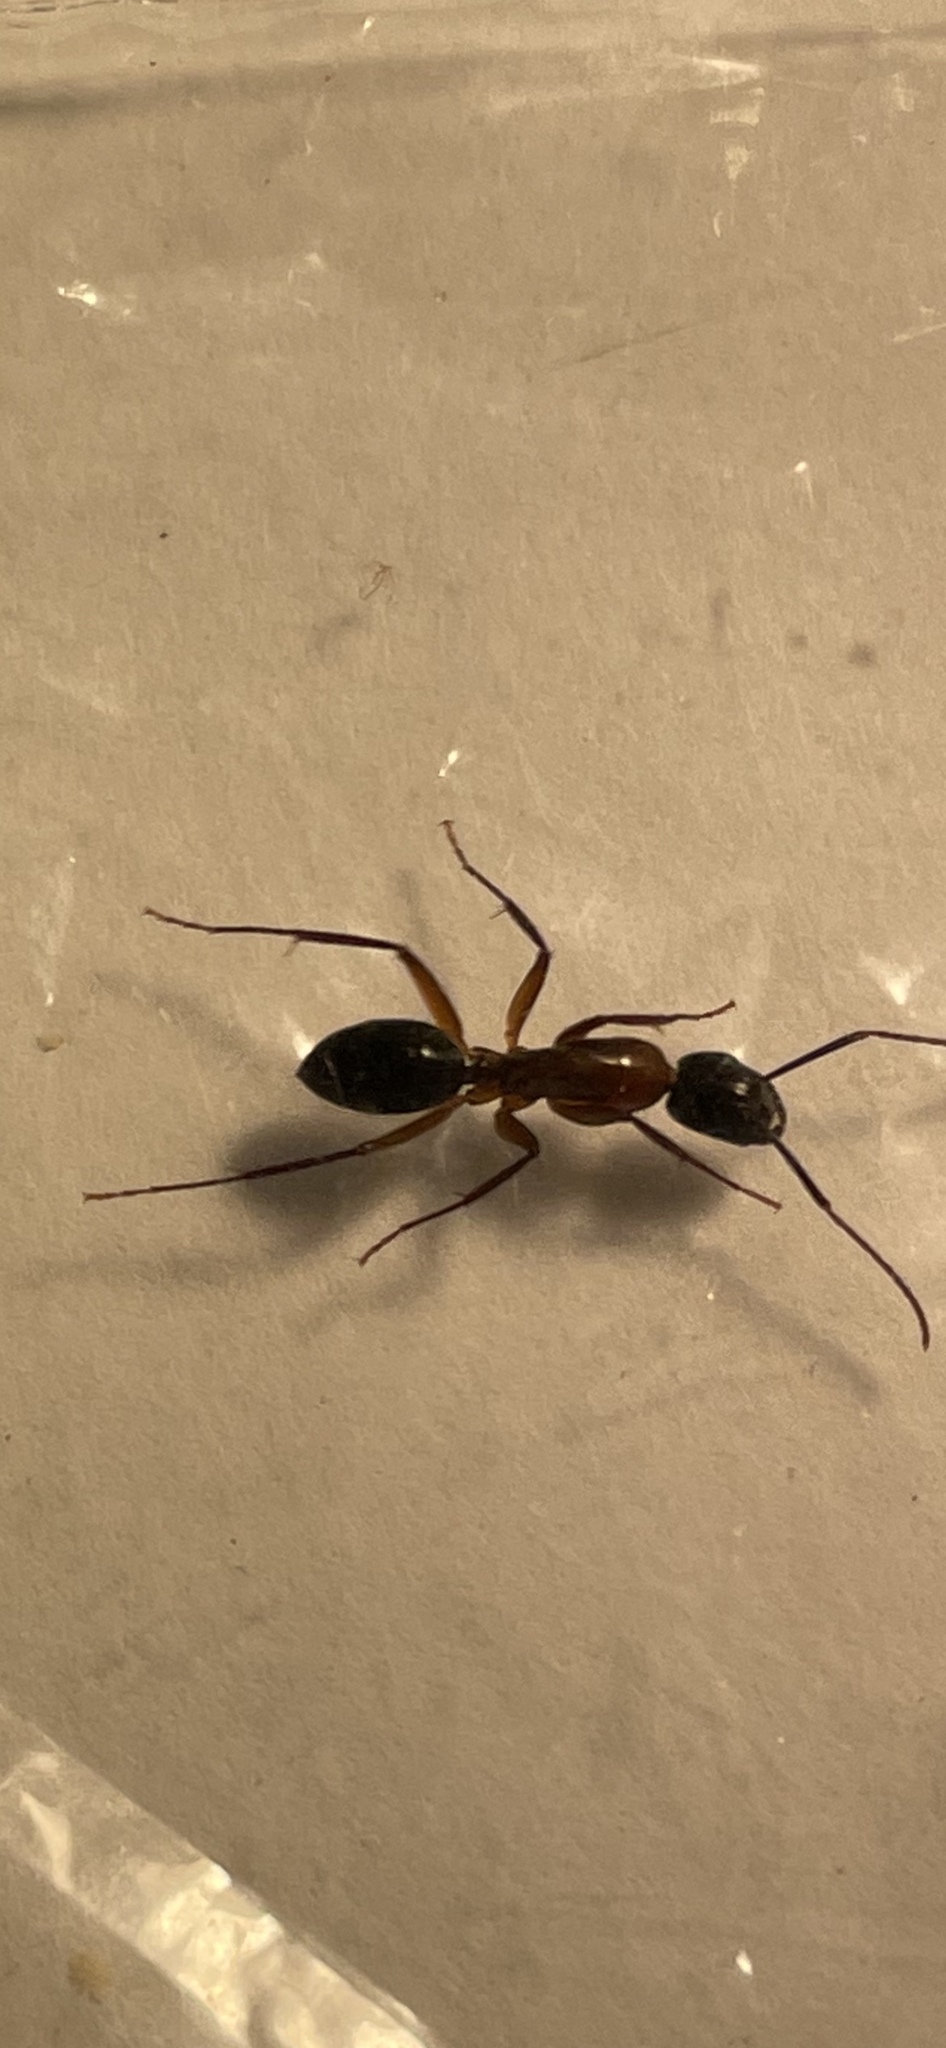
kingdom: Animalia
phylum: Arthropoda
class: Insecta
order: Hymenoptera
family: Formicidae
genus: Camponotus
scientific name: Camponotus texanus
